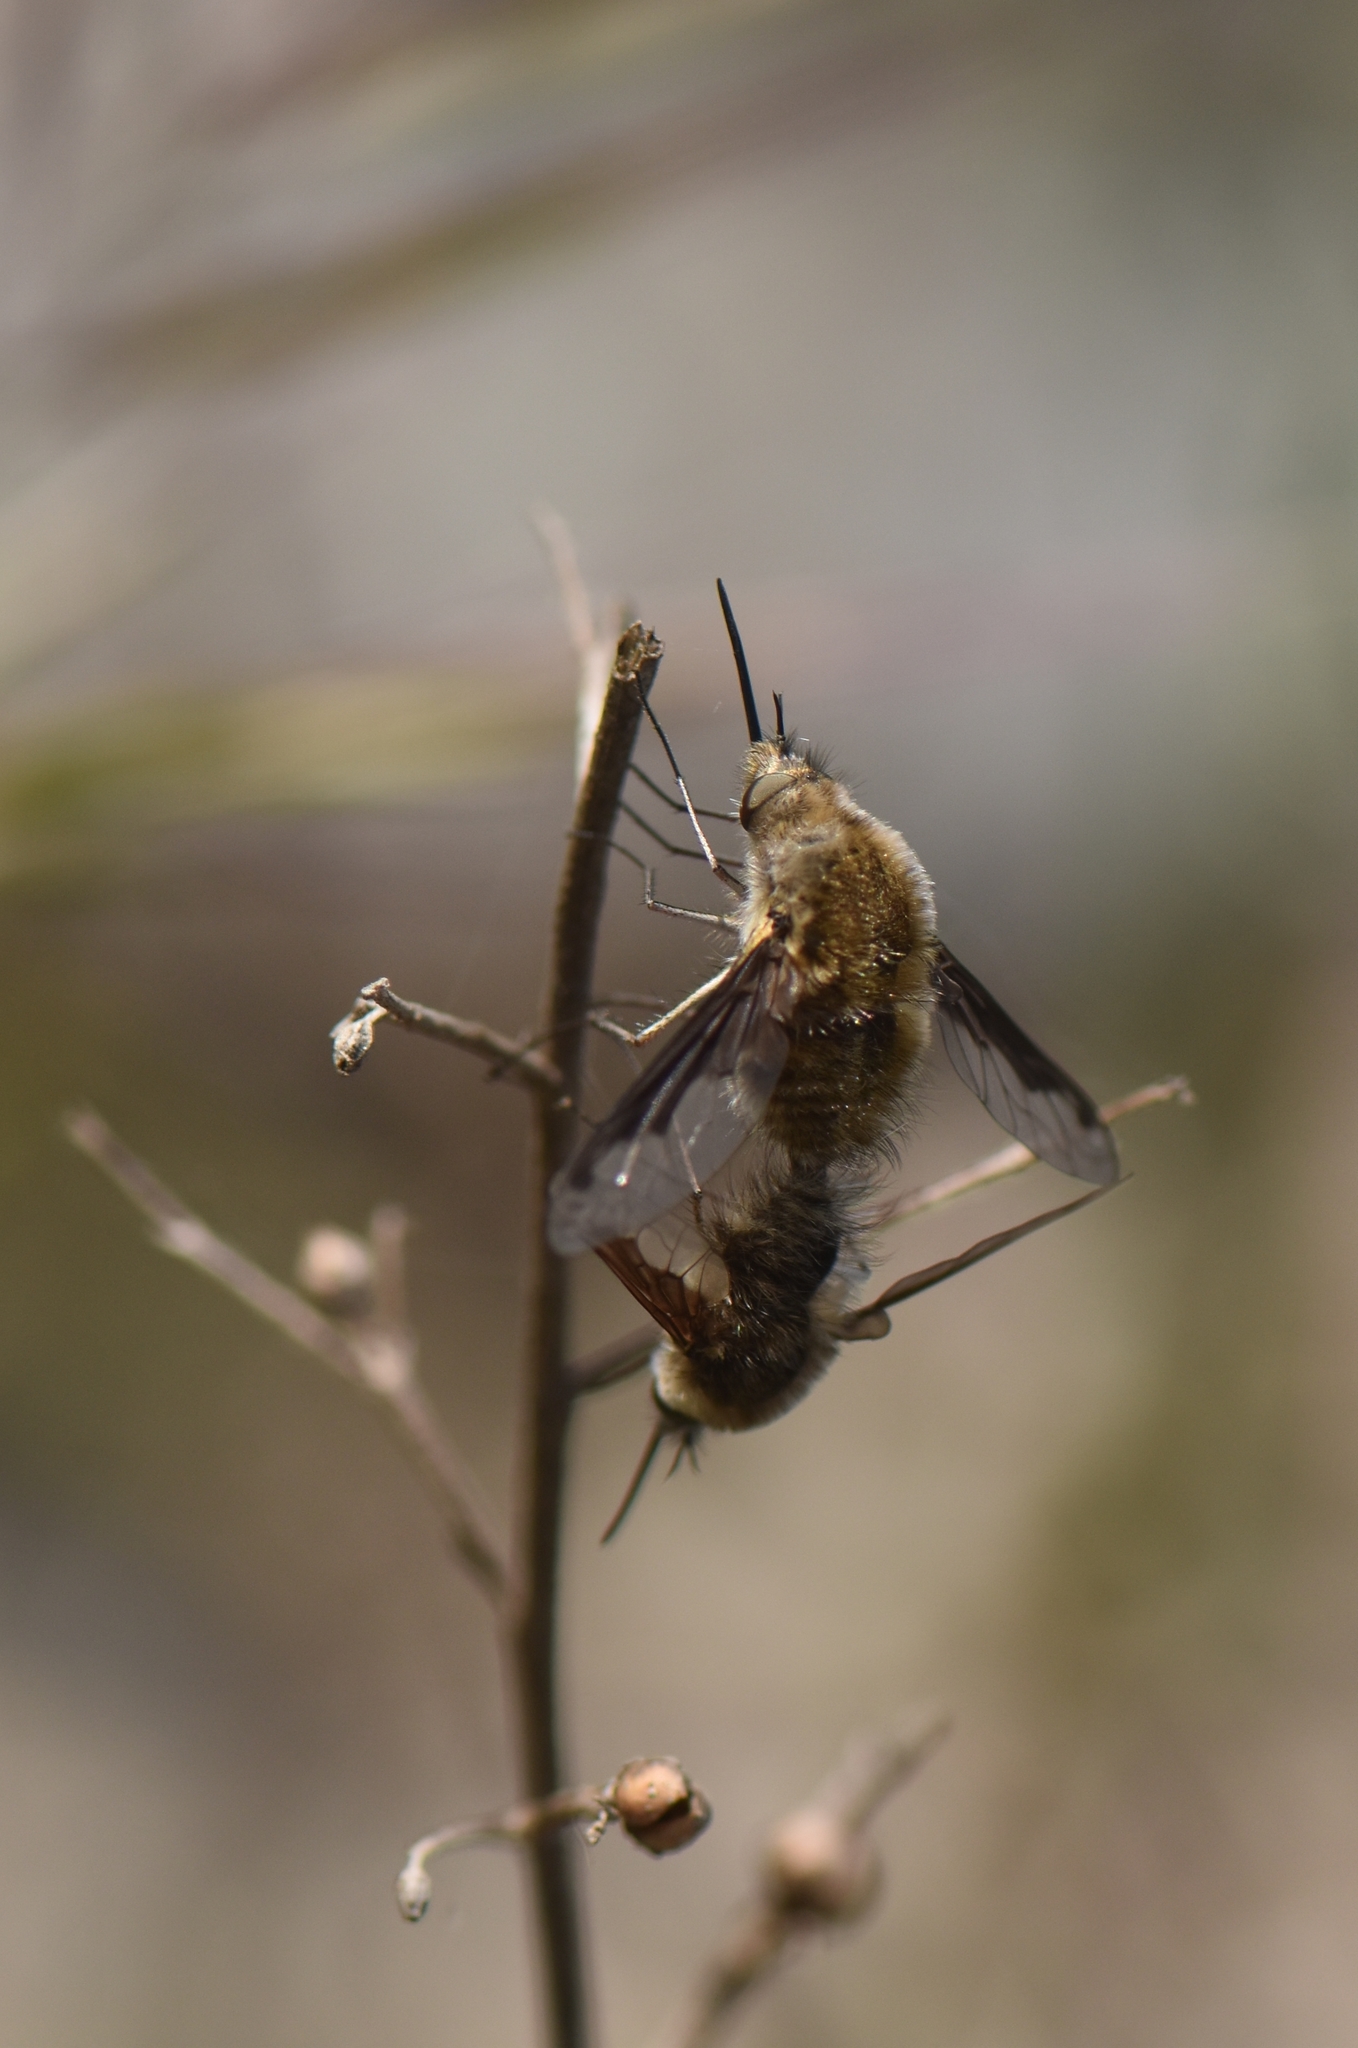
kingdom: Animalia
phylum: Arthropoda
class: Insecta
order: Diptera
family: Bombyliidae
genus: Bombylius
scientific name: Bombylius fimbriatus
